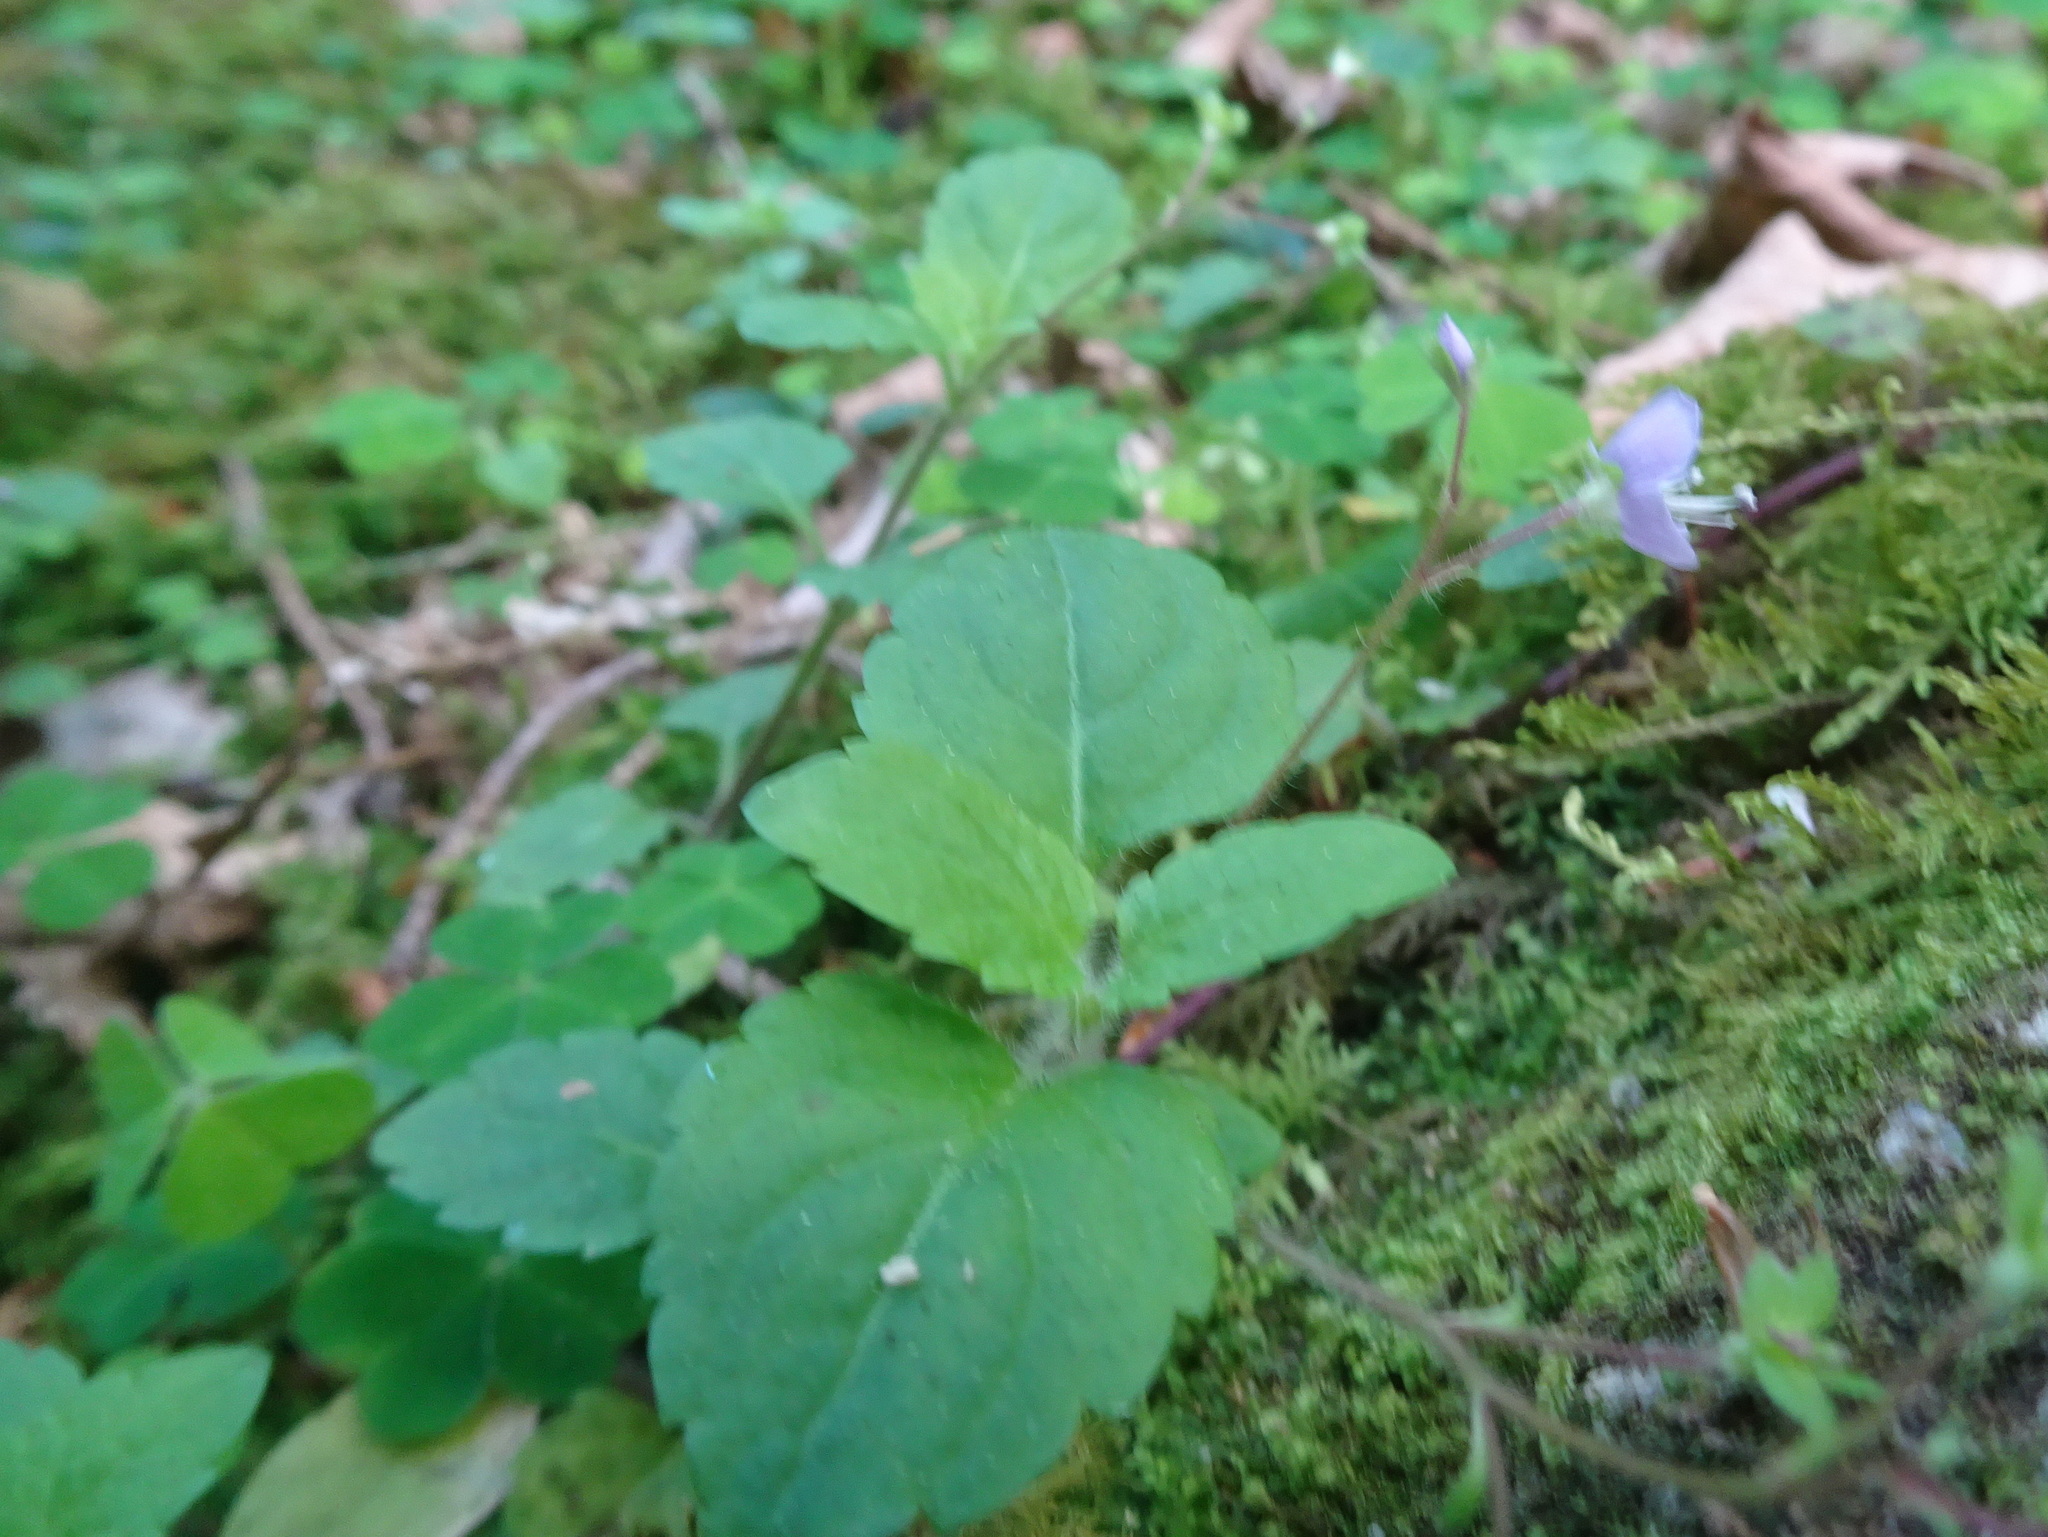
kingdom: Plantae
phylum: Tracheophyta
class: Magnoliopsida
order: Lamiales
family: Plantaginaceae
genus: Veronica
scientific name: Veronica montana
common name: Wood speedwell
